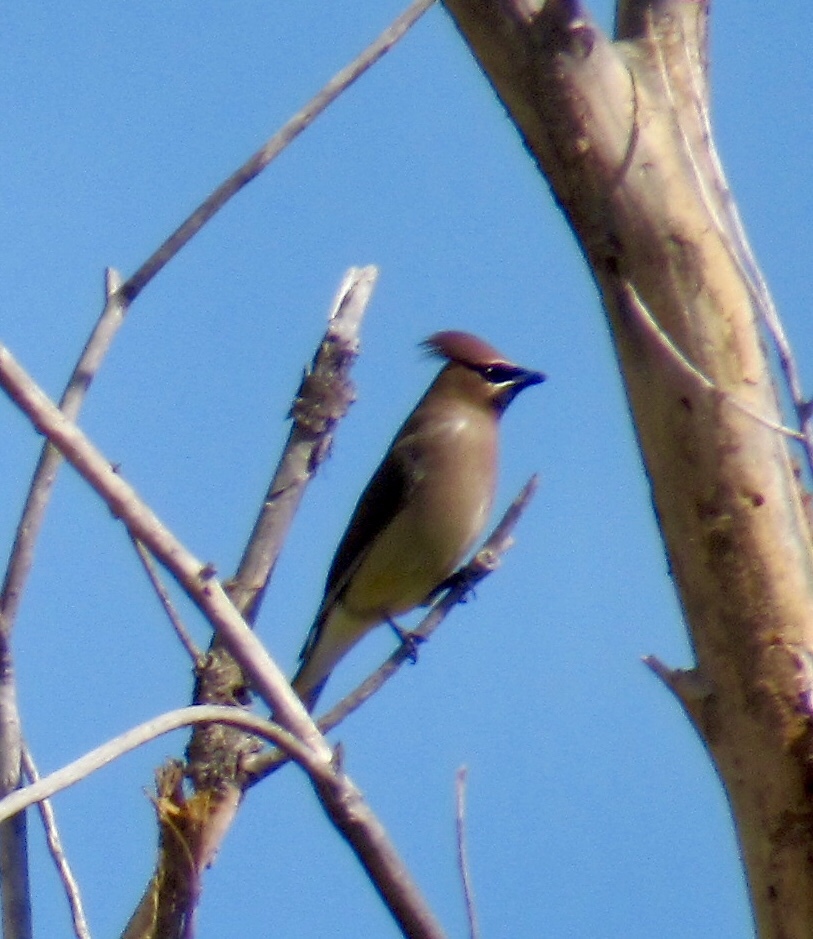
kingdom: Animalia
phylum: Chordata
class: Aves
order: Passeriformes
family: Bombycillidae
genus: Bombycilla
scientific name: Bombycilla cedrorum
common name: Cedar waxwing
